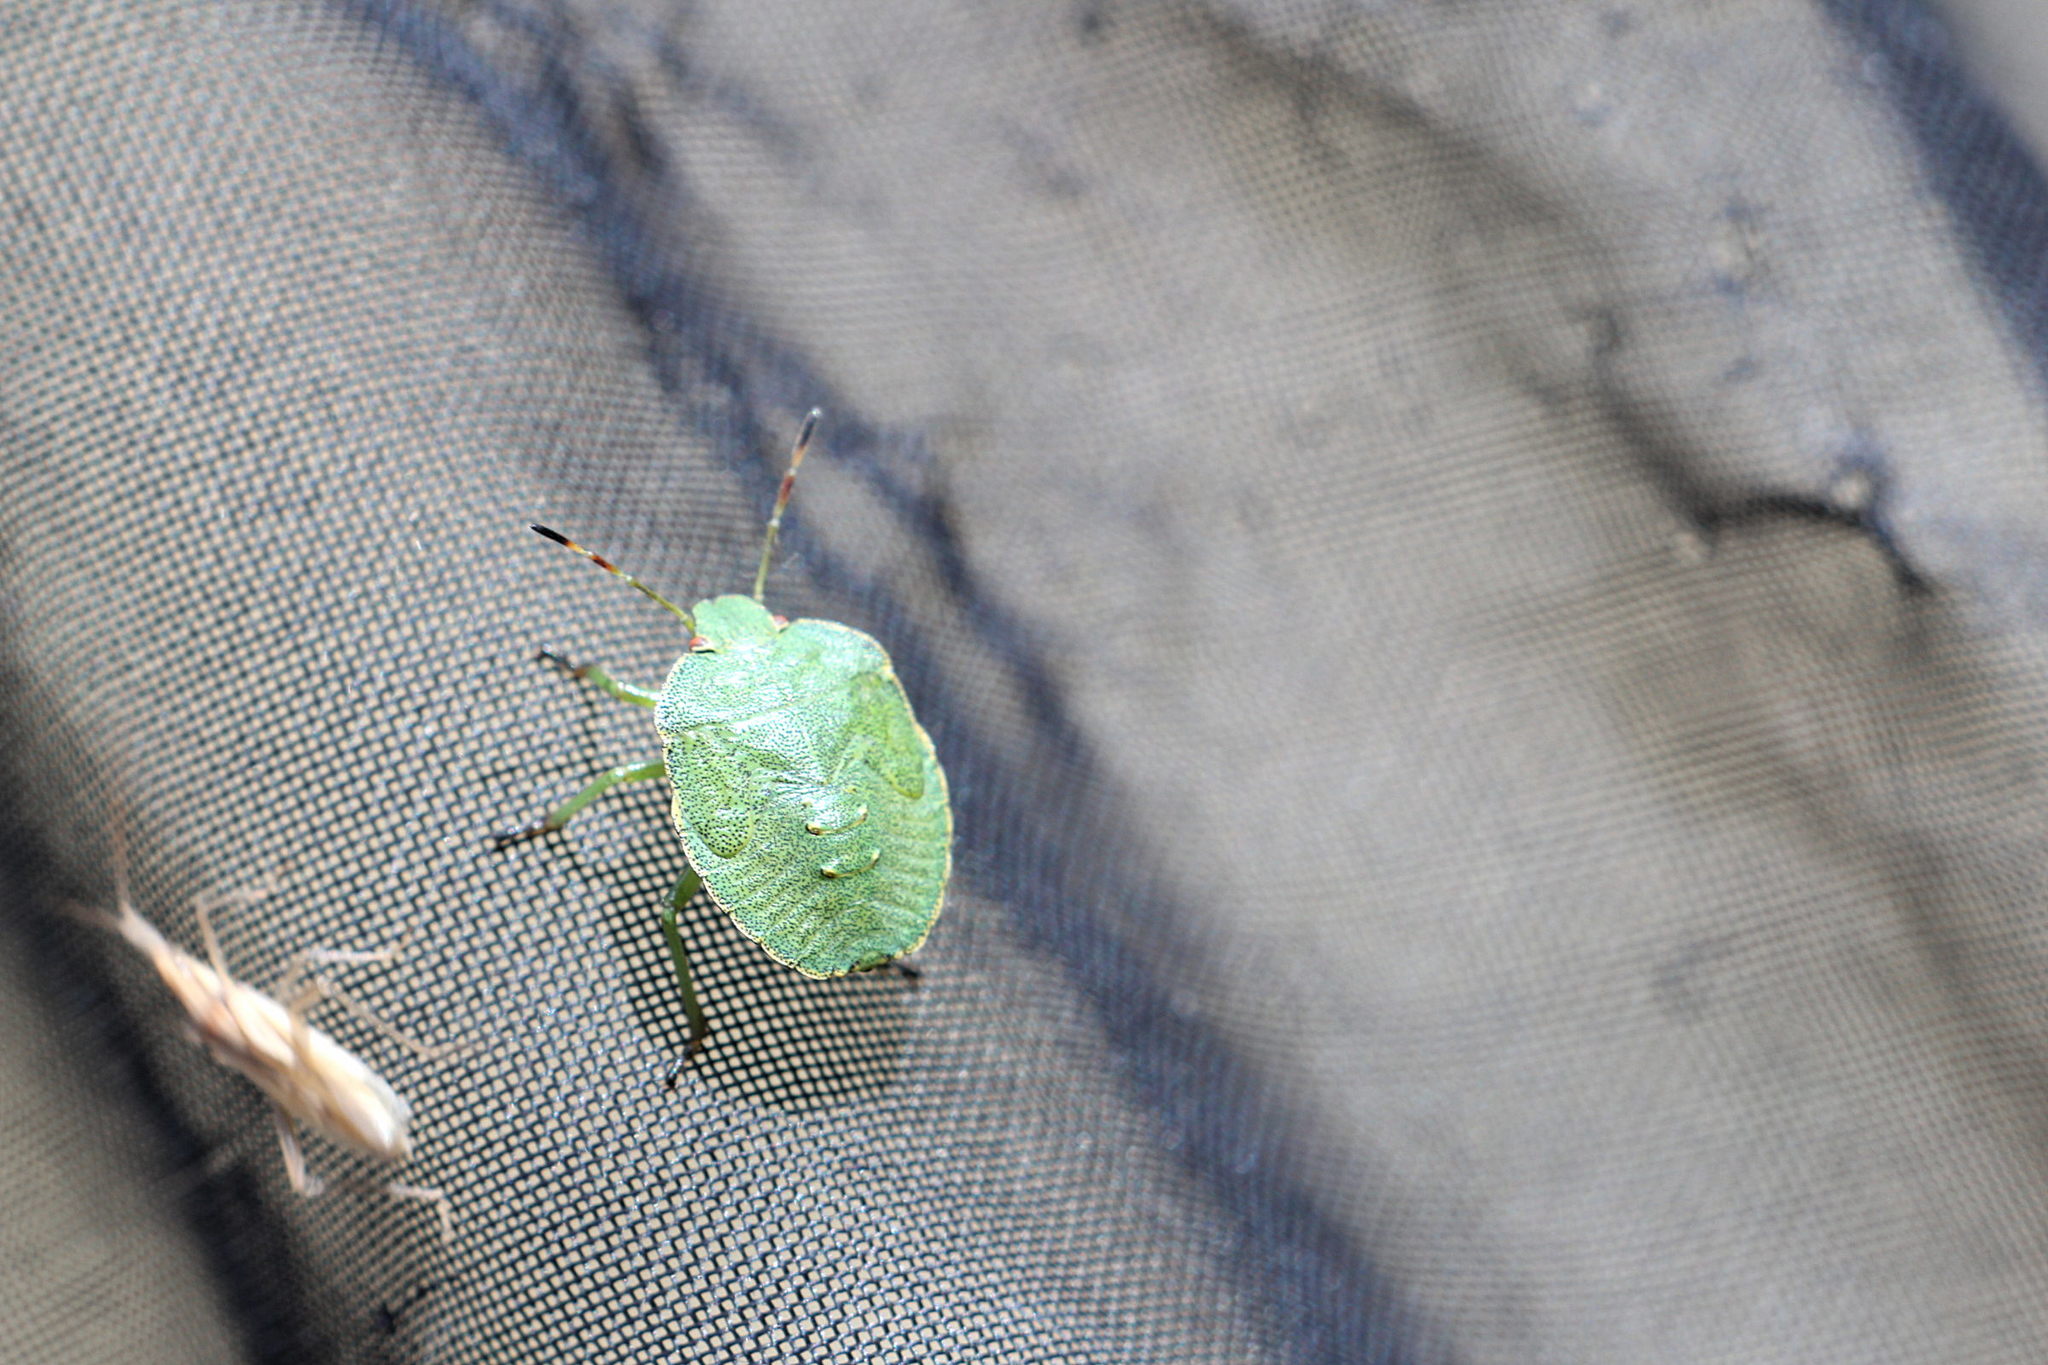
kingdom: Animalia
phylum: Arthropoda
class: Insecta
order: Hemiptera
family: Pentatomidae
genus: Palomena
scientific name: Palomena prasina
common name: Green shieldbug
